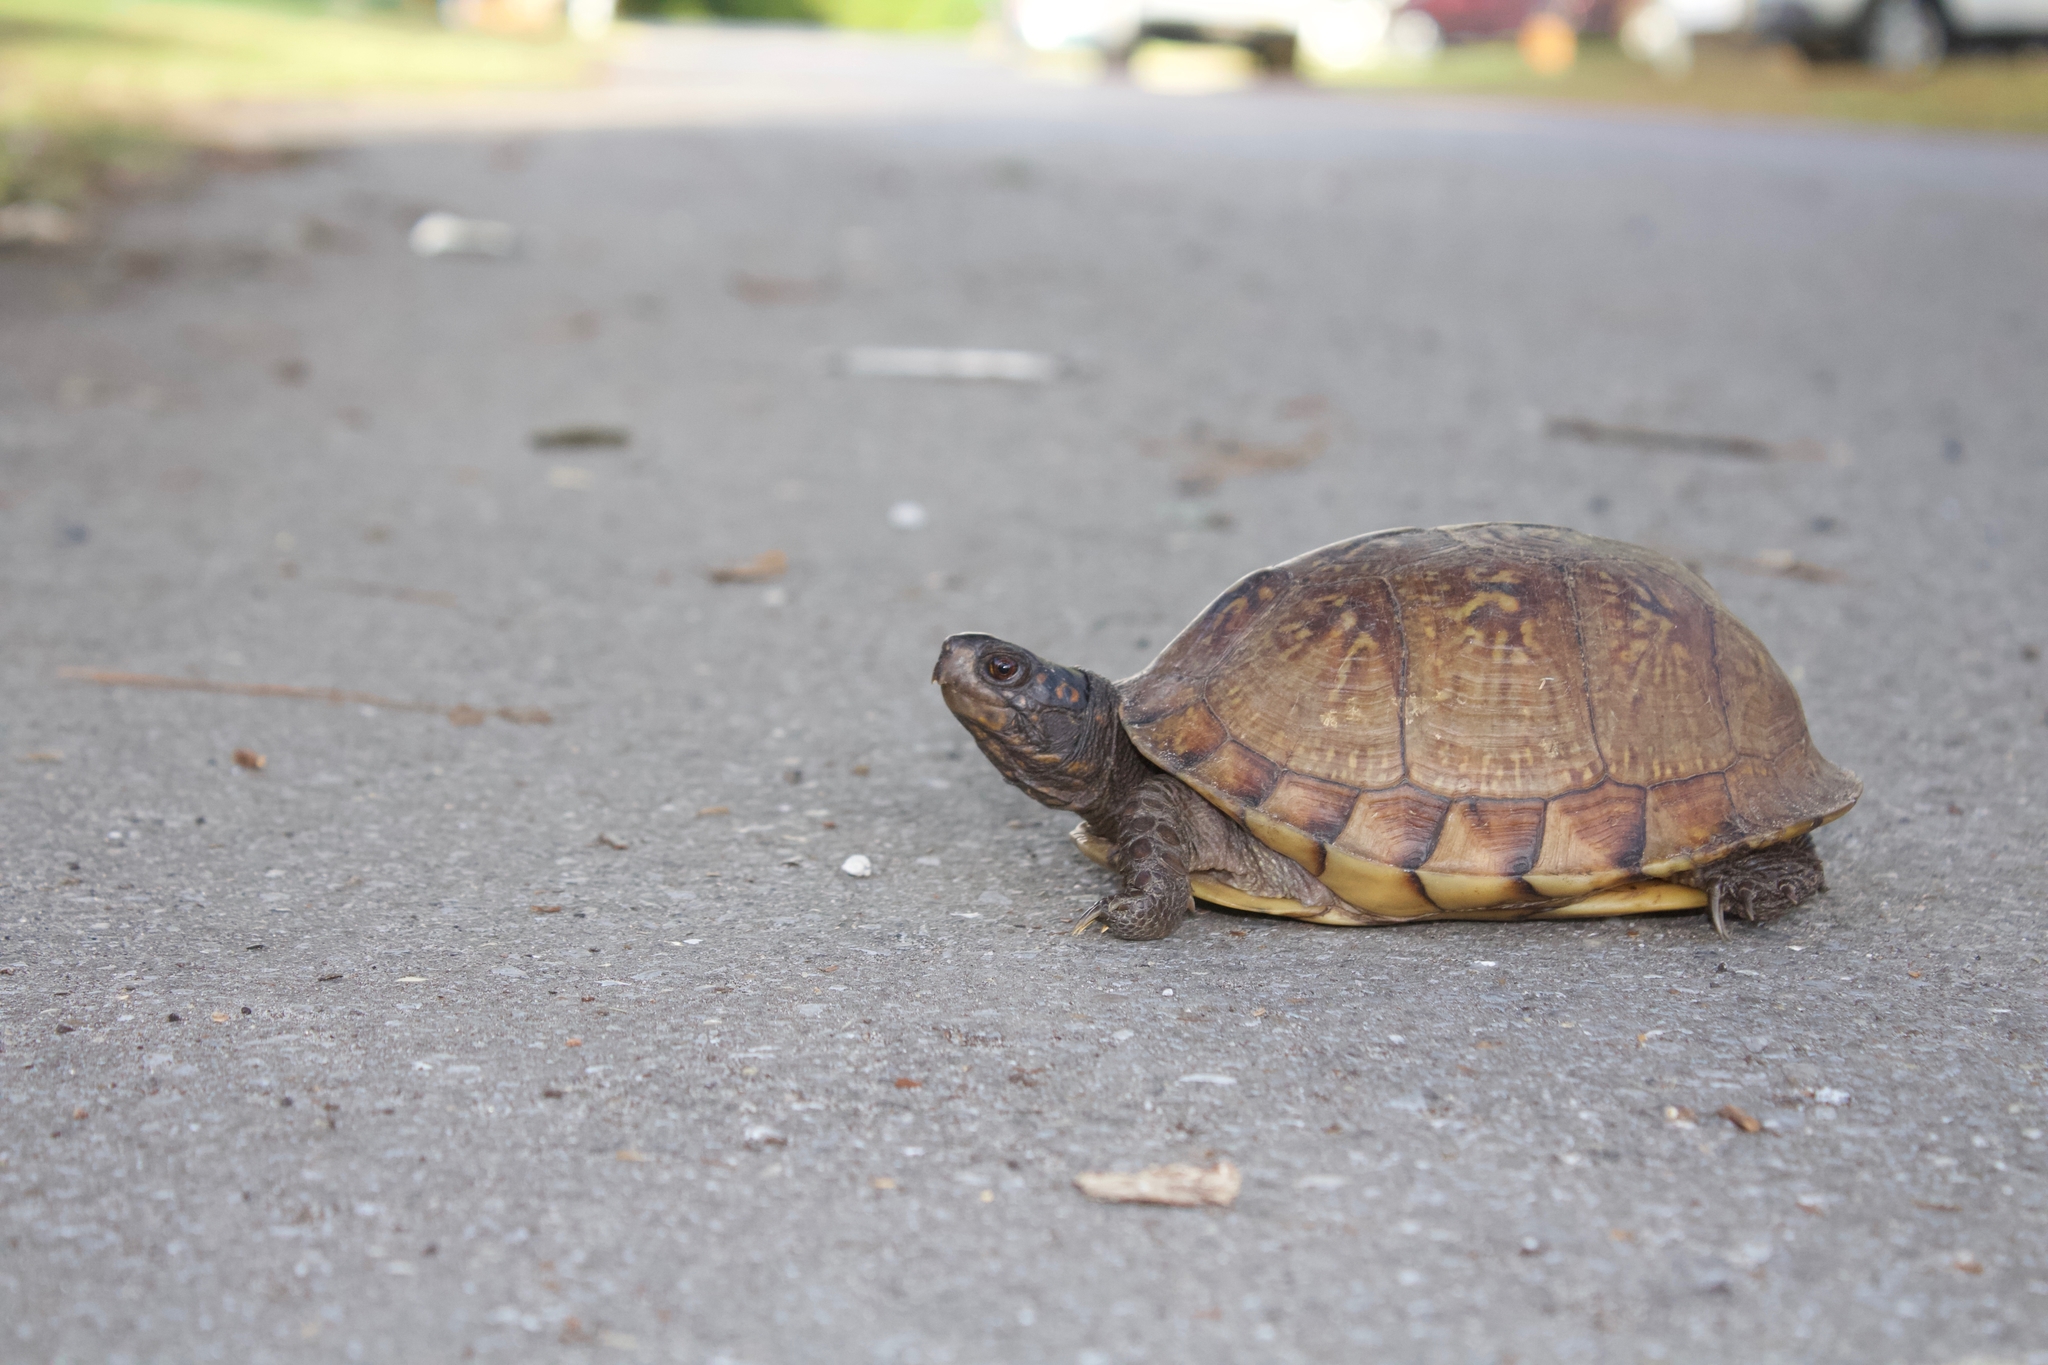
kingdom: Animalia
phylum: Chordata
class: Testudines
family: Emydidae
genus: Terrapene
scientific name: Terrapene carolina
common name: Common box turtle
